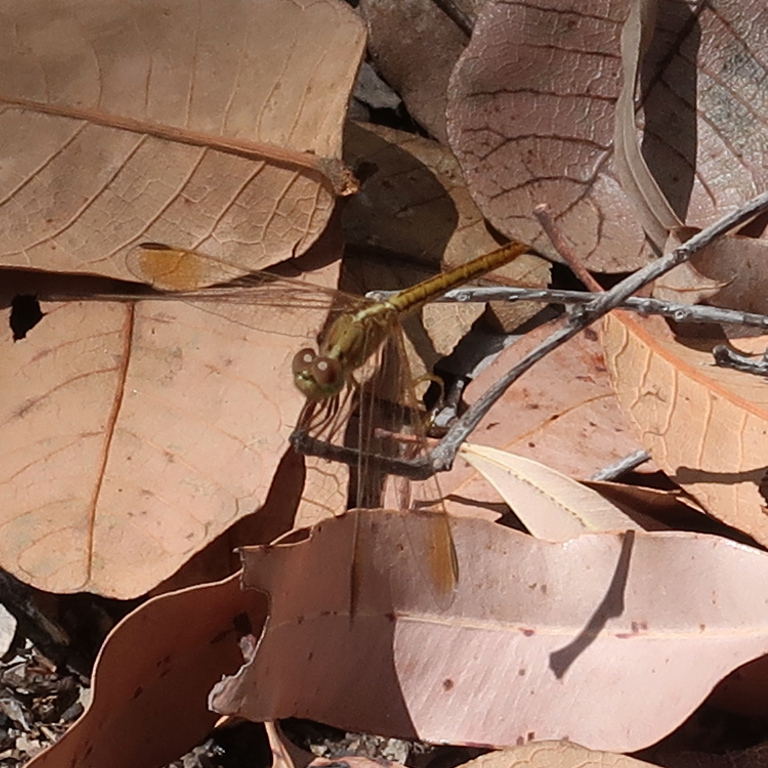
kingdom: Animalia
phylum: Arthropoda
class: Insecta
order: Odonata
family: Libellulidae
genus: Diplacodes
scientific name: Diplacodes haematodes
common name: Scarlet percher
